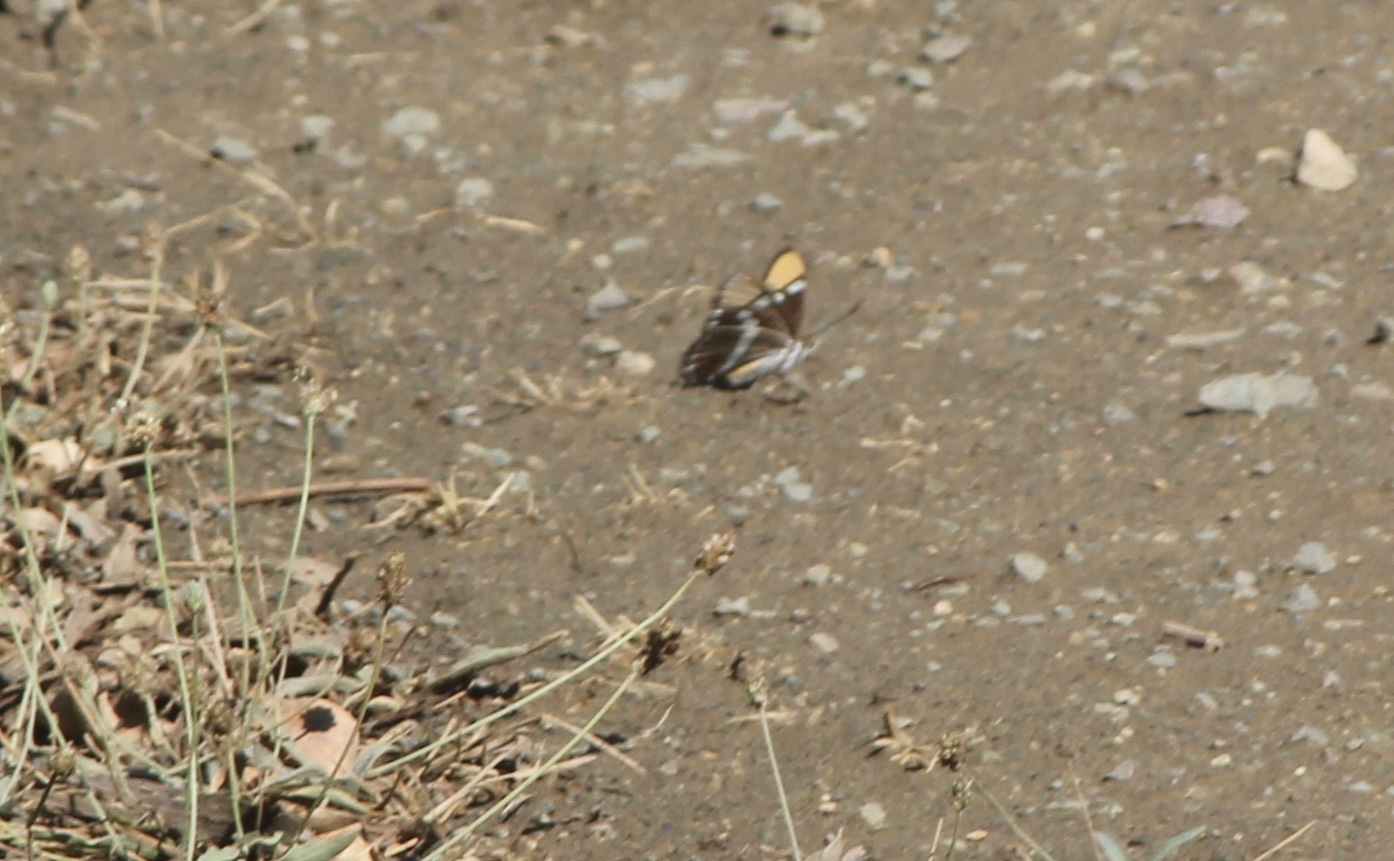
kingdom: Animalia
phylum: Arthropoda
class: Insecta
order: Lepidoptera
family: Nymphalidae
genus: Limenitis
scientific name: Limenitis bredowii
